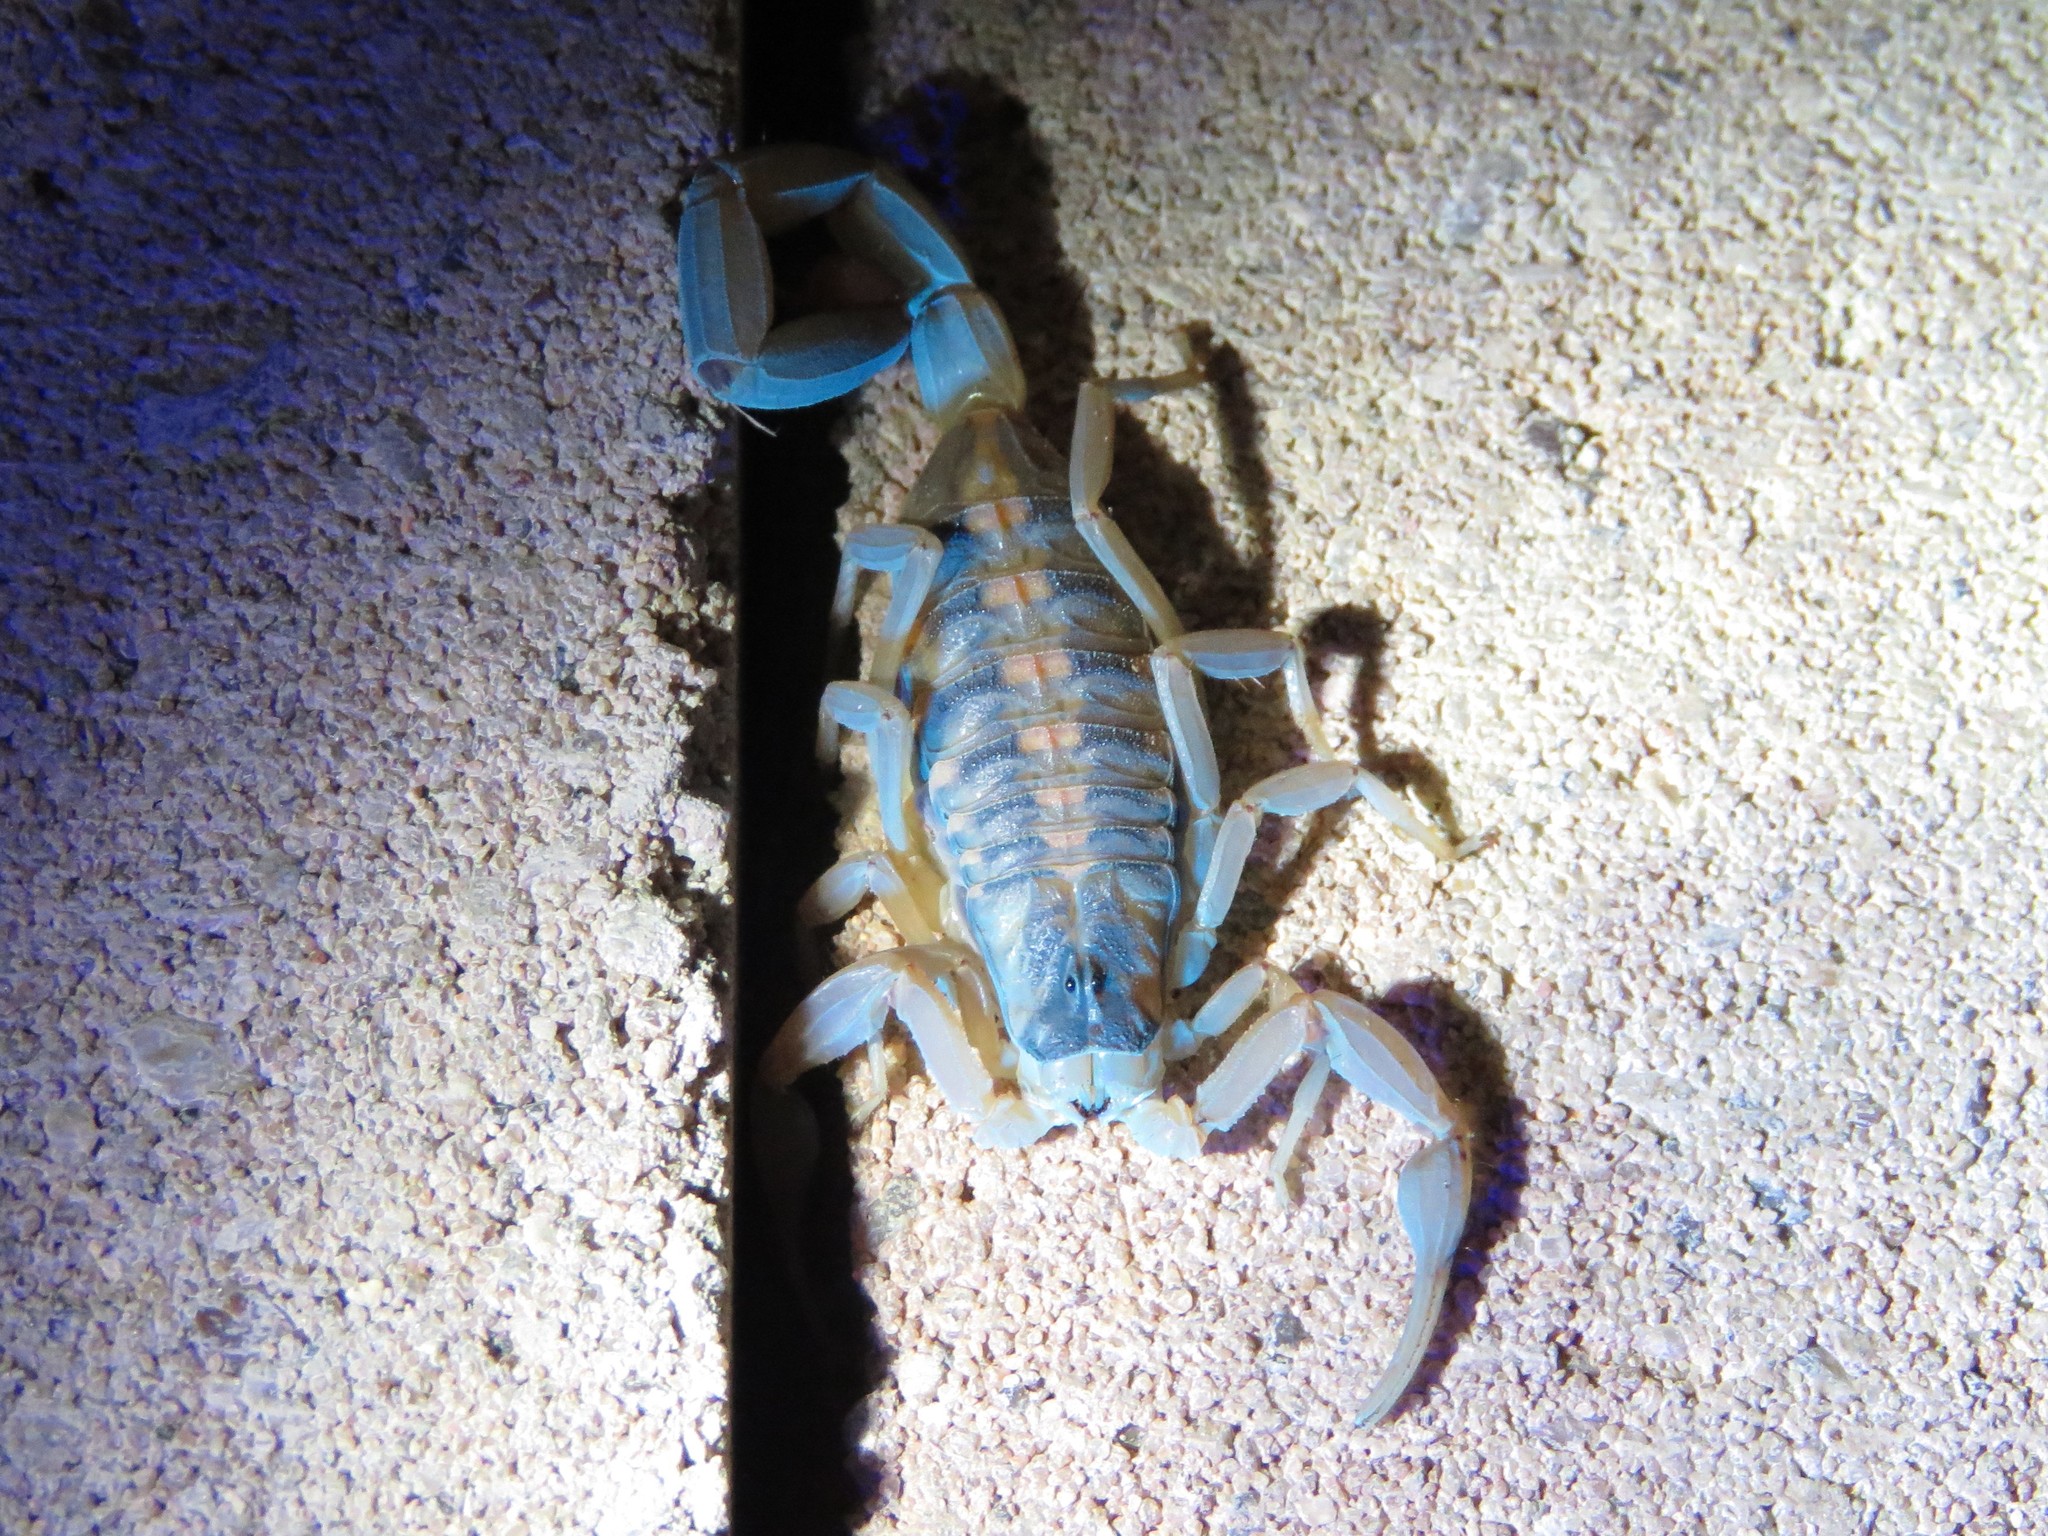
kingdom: Animalia
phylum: Arthropoda
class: Arachnida
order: Scorpiones
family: Buthidae
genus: Centruroides
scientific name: Centruroides vittatus
